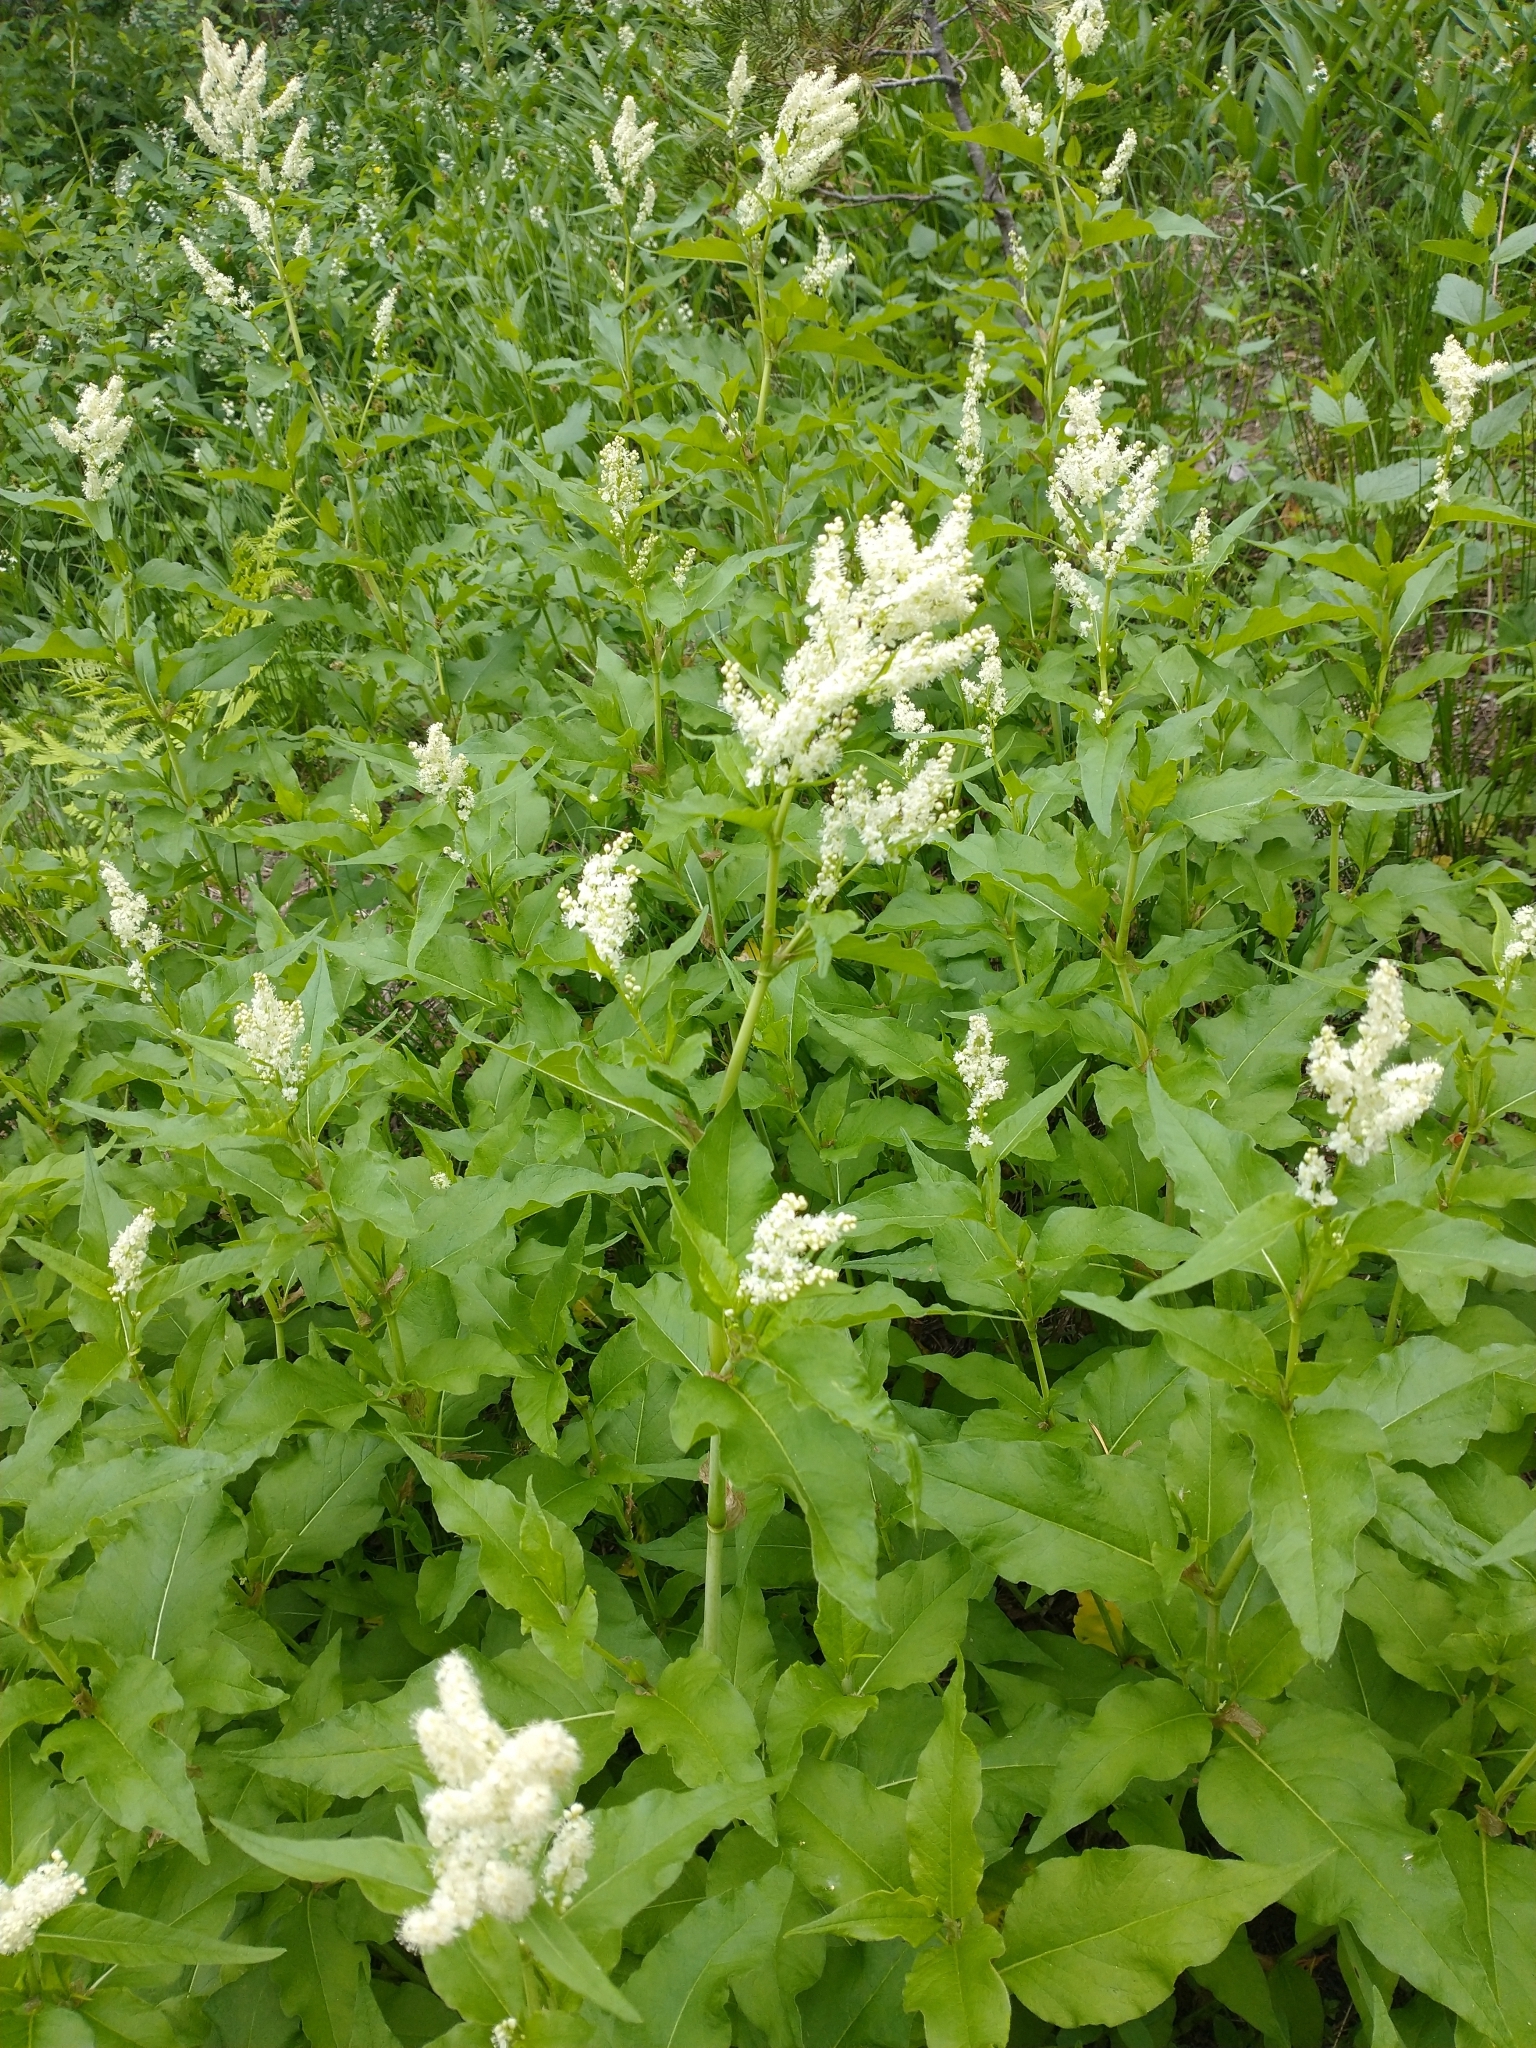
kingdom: Plantae
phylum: Tracheophyta
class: Magnoliopsida
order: Caryophyllales
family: Polygonaceae
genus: Koenigia
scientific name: Koenigia phytolaccifolia
